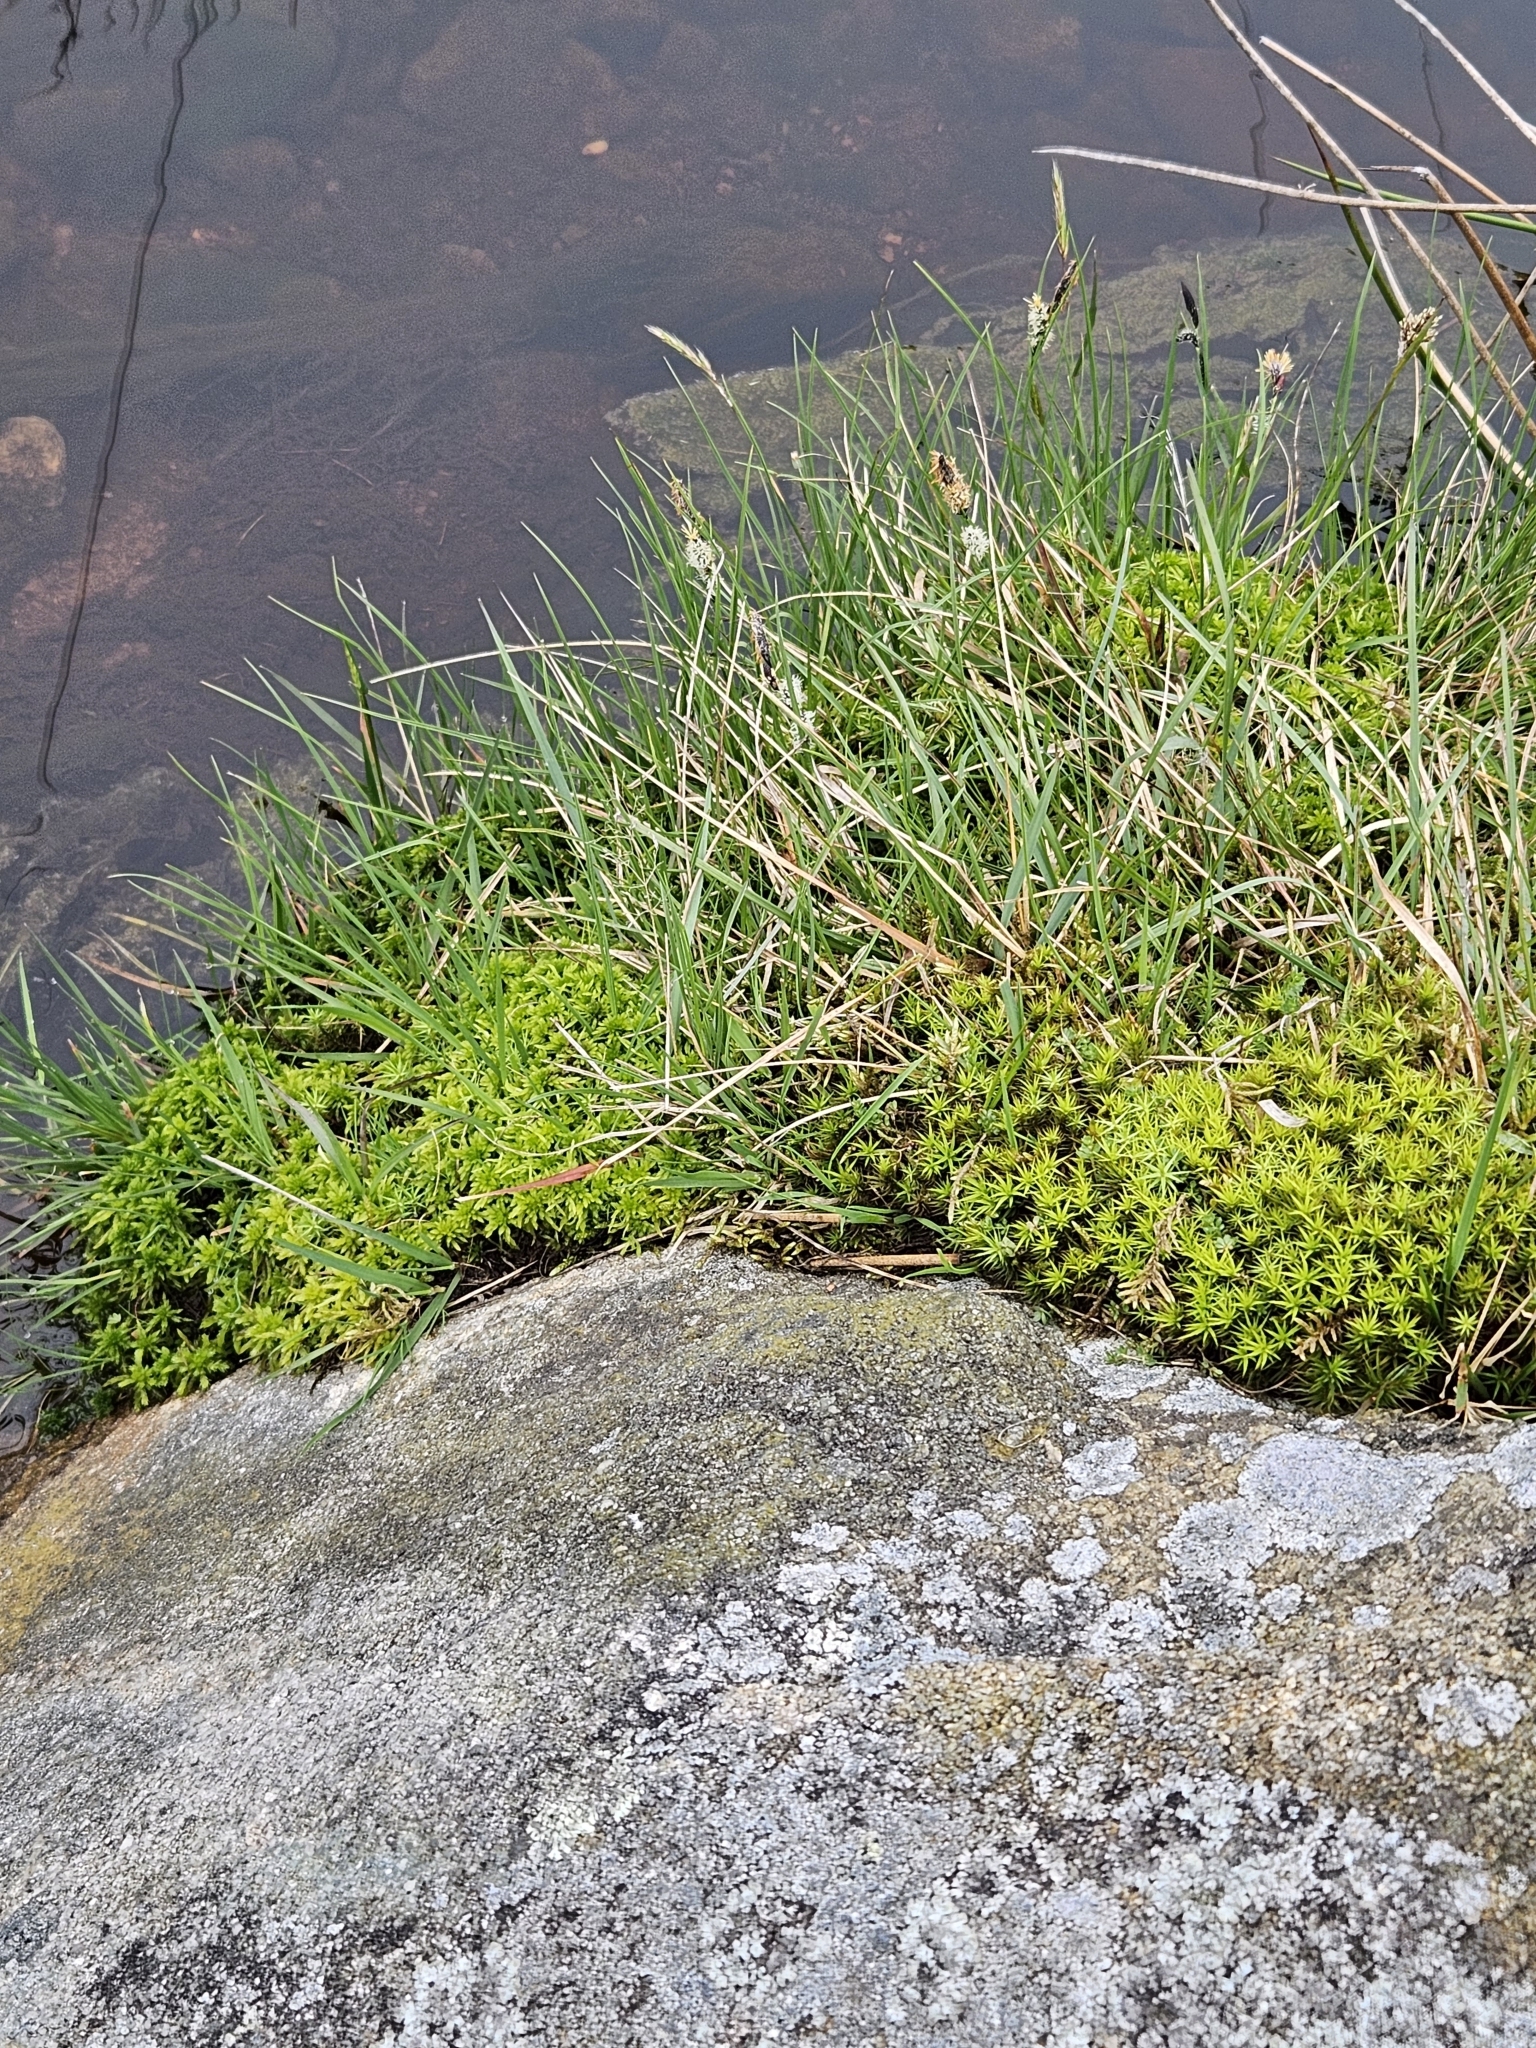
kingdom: Plantae
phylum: Bryophyta
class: Polytrichopsida
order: Polytrichales
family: Polytrichaceae
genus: Polytrichum
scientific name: Polytrichum formosum
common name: Bank haircap moss
